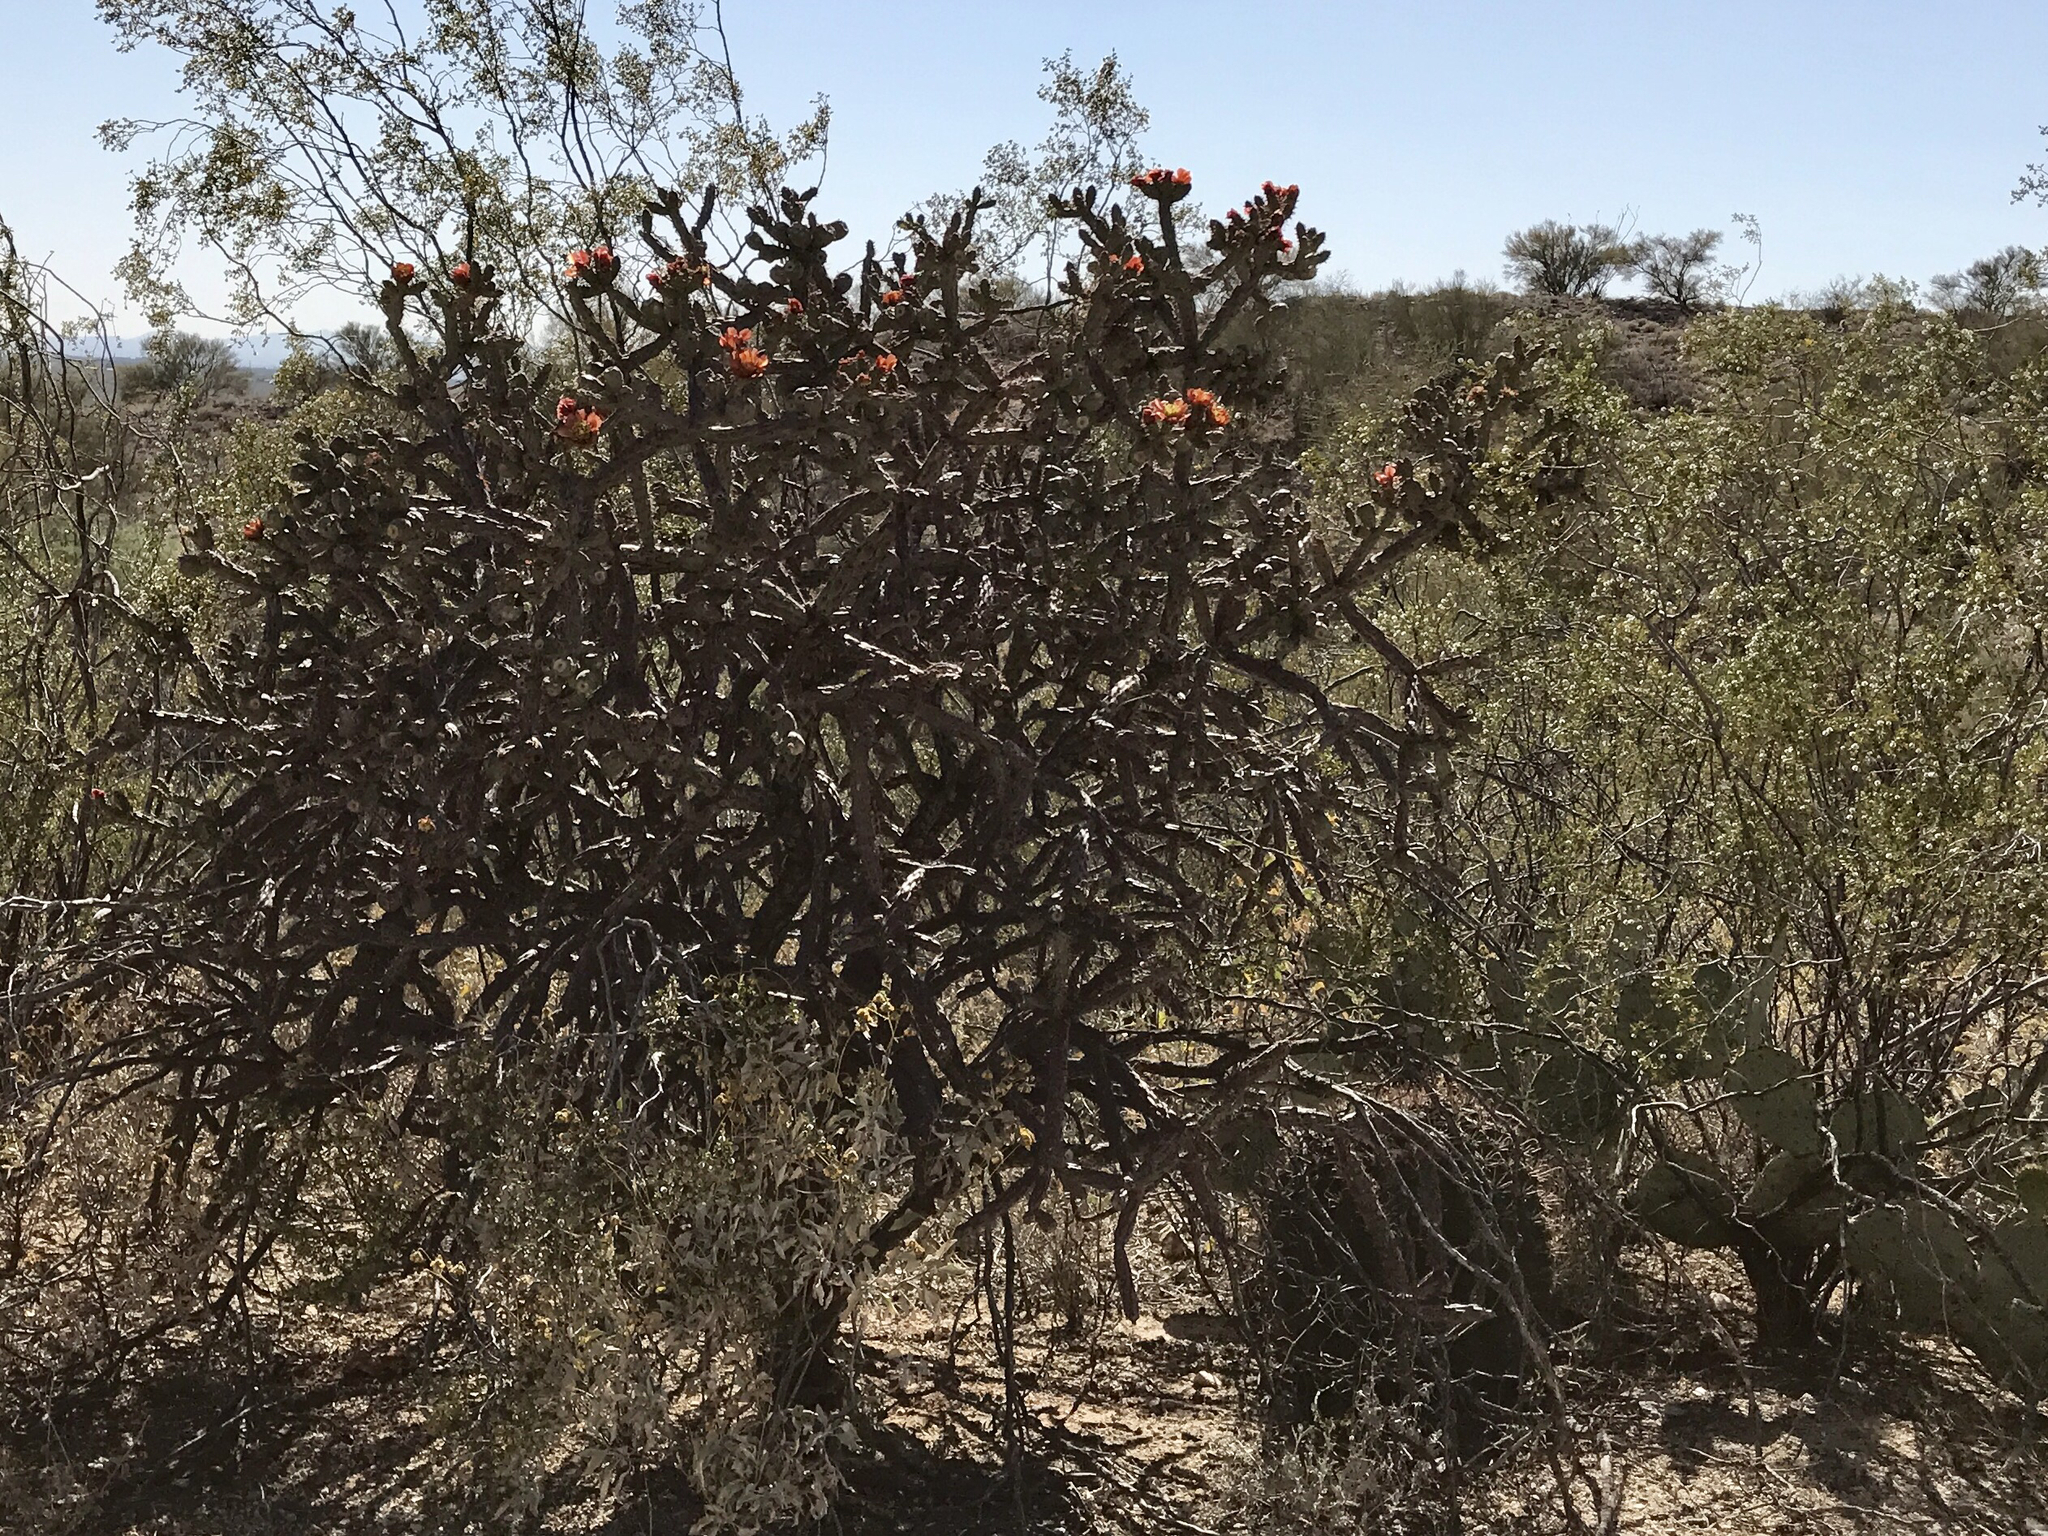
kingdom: Plantae
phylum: Tracheophyta
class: Magnoliopsida
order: Caryophyllales
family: Cactaceae
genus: Cylindropuntia
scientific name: Cylindropuntia thurberi
